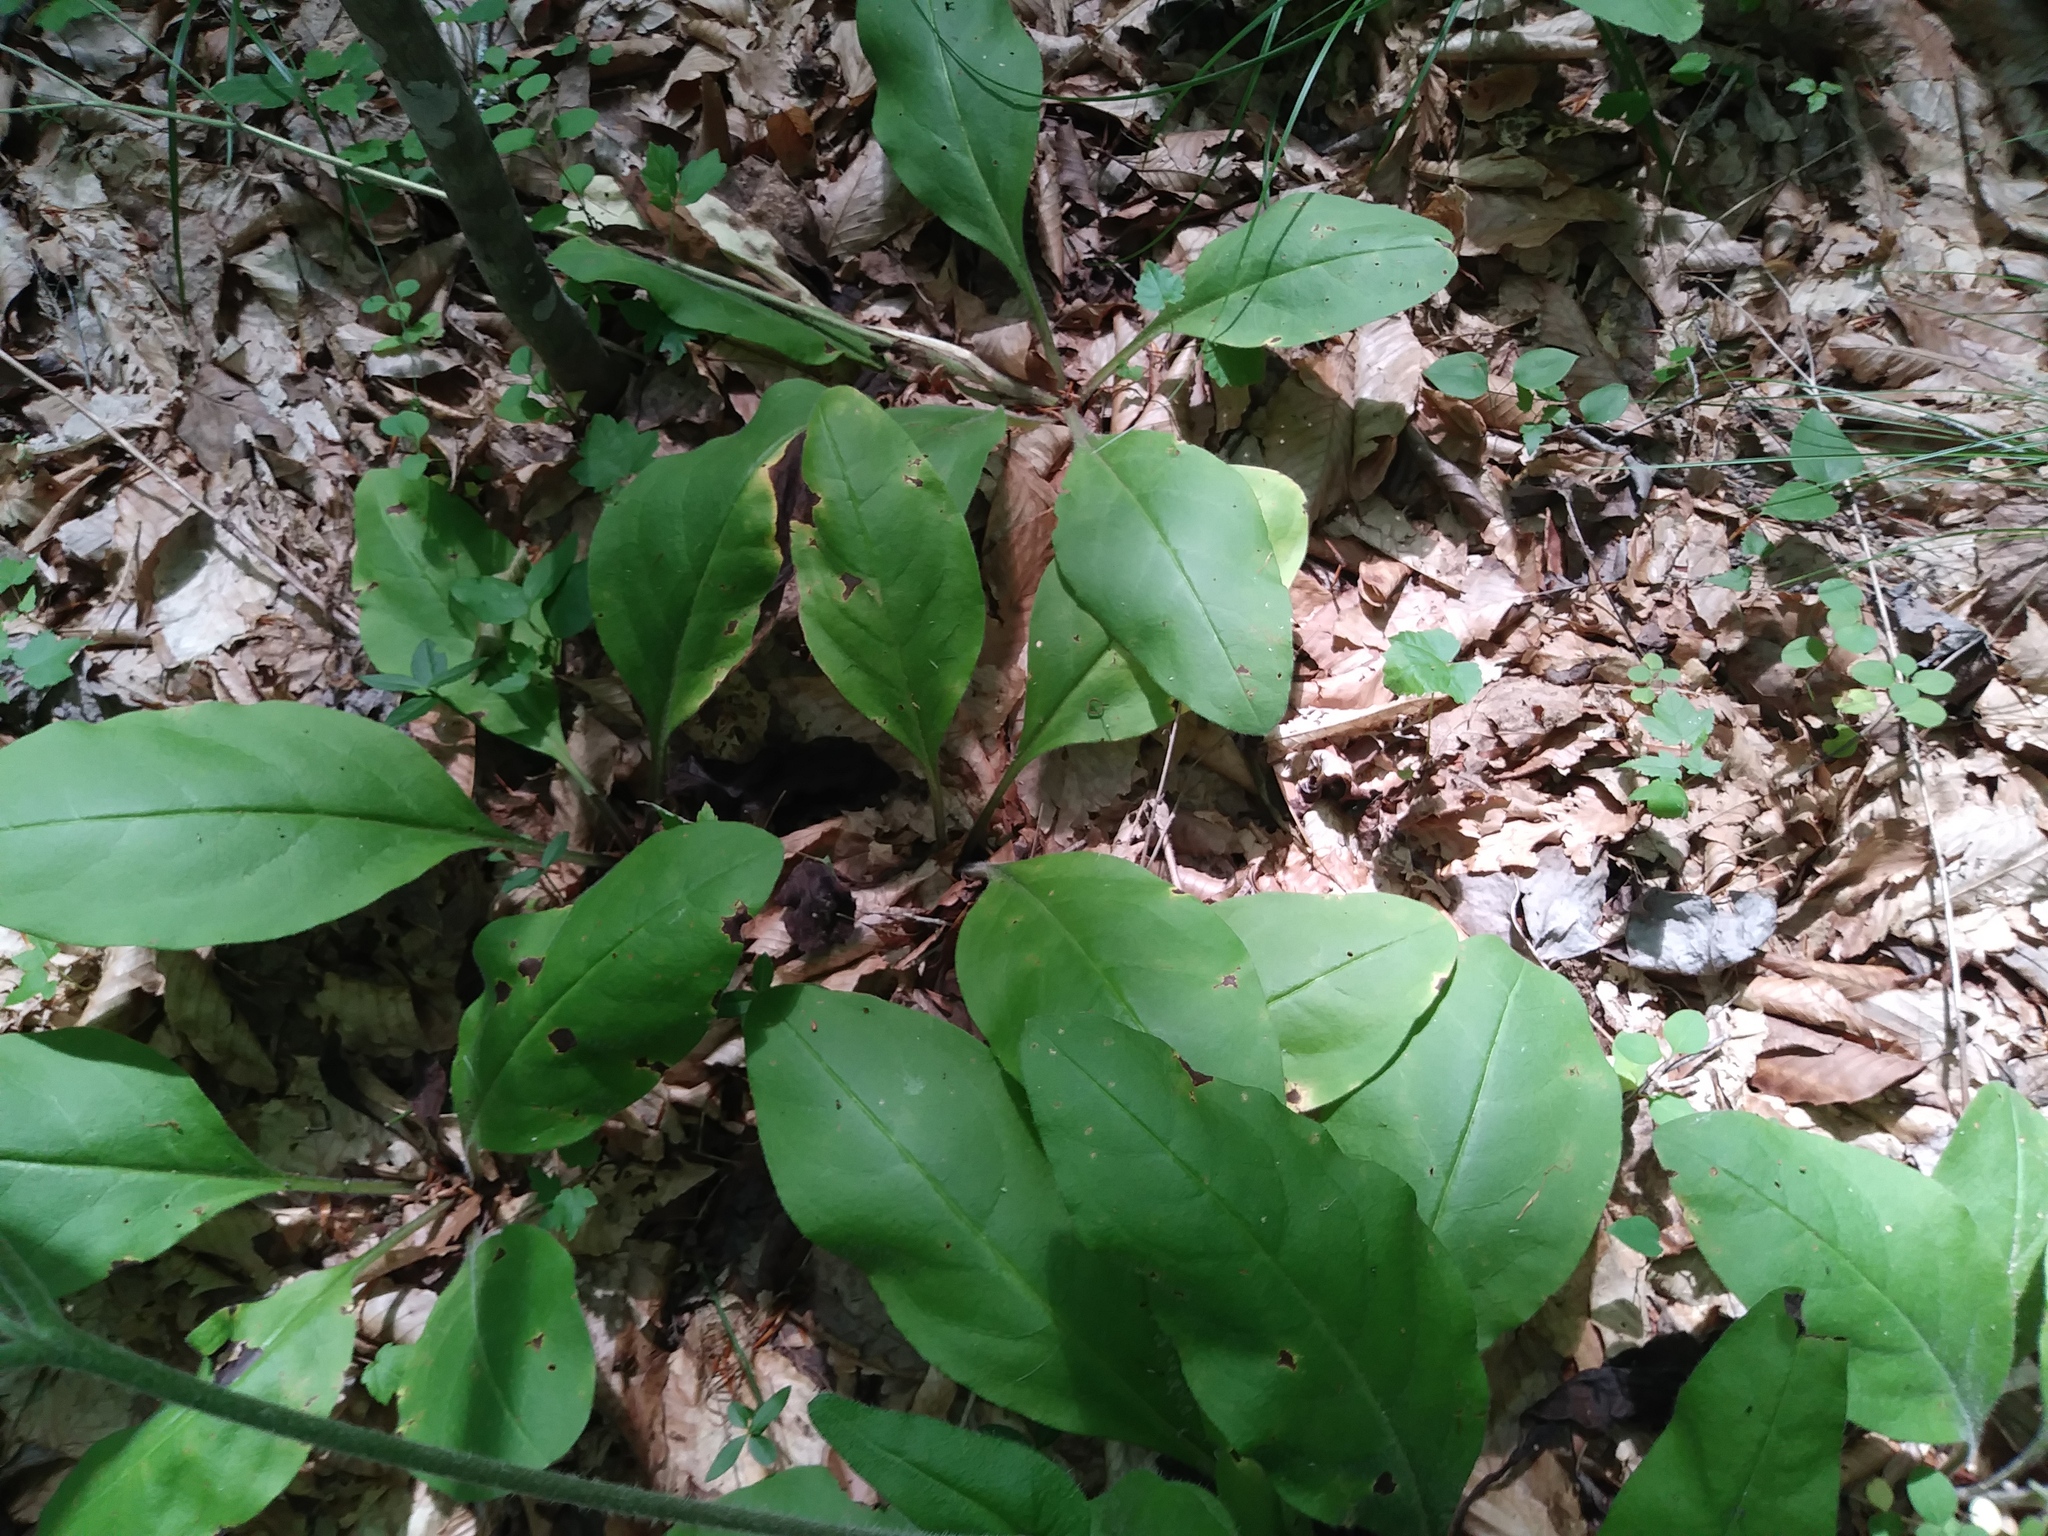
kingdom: Plantae
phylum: Tracheophyta
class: Magnoliopsida
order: Boraginales
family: Boraginaceae
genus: Andersonglossum
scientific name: Andersonglossum virginianum
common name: Wild comfrey
